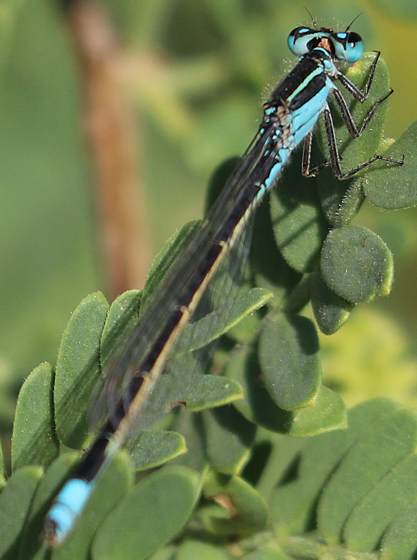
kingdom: Animalia
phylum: Arthropoda
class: Insecta
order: Odonata
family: Coenagrionidae
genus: Ischnura
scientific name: Ischnura ramburii
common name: Rambur's forktail
